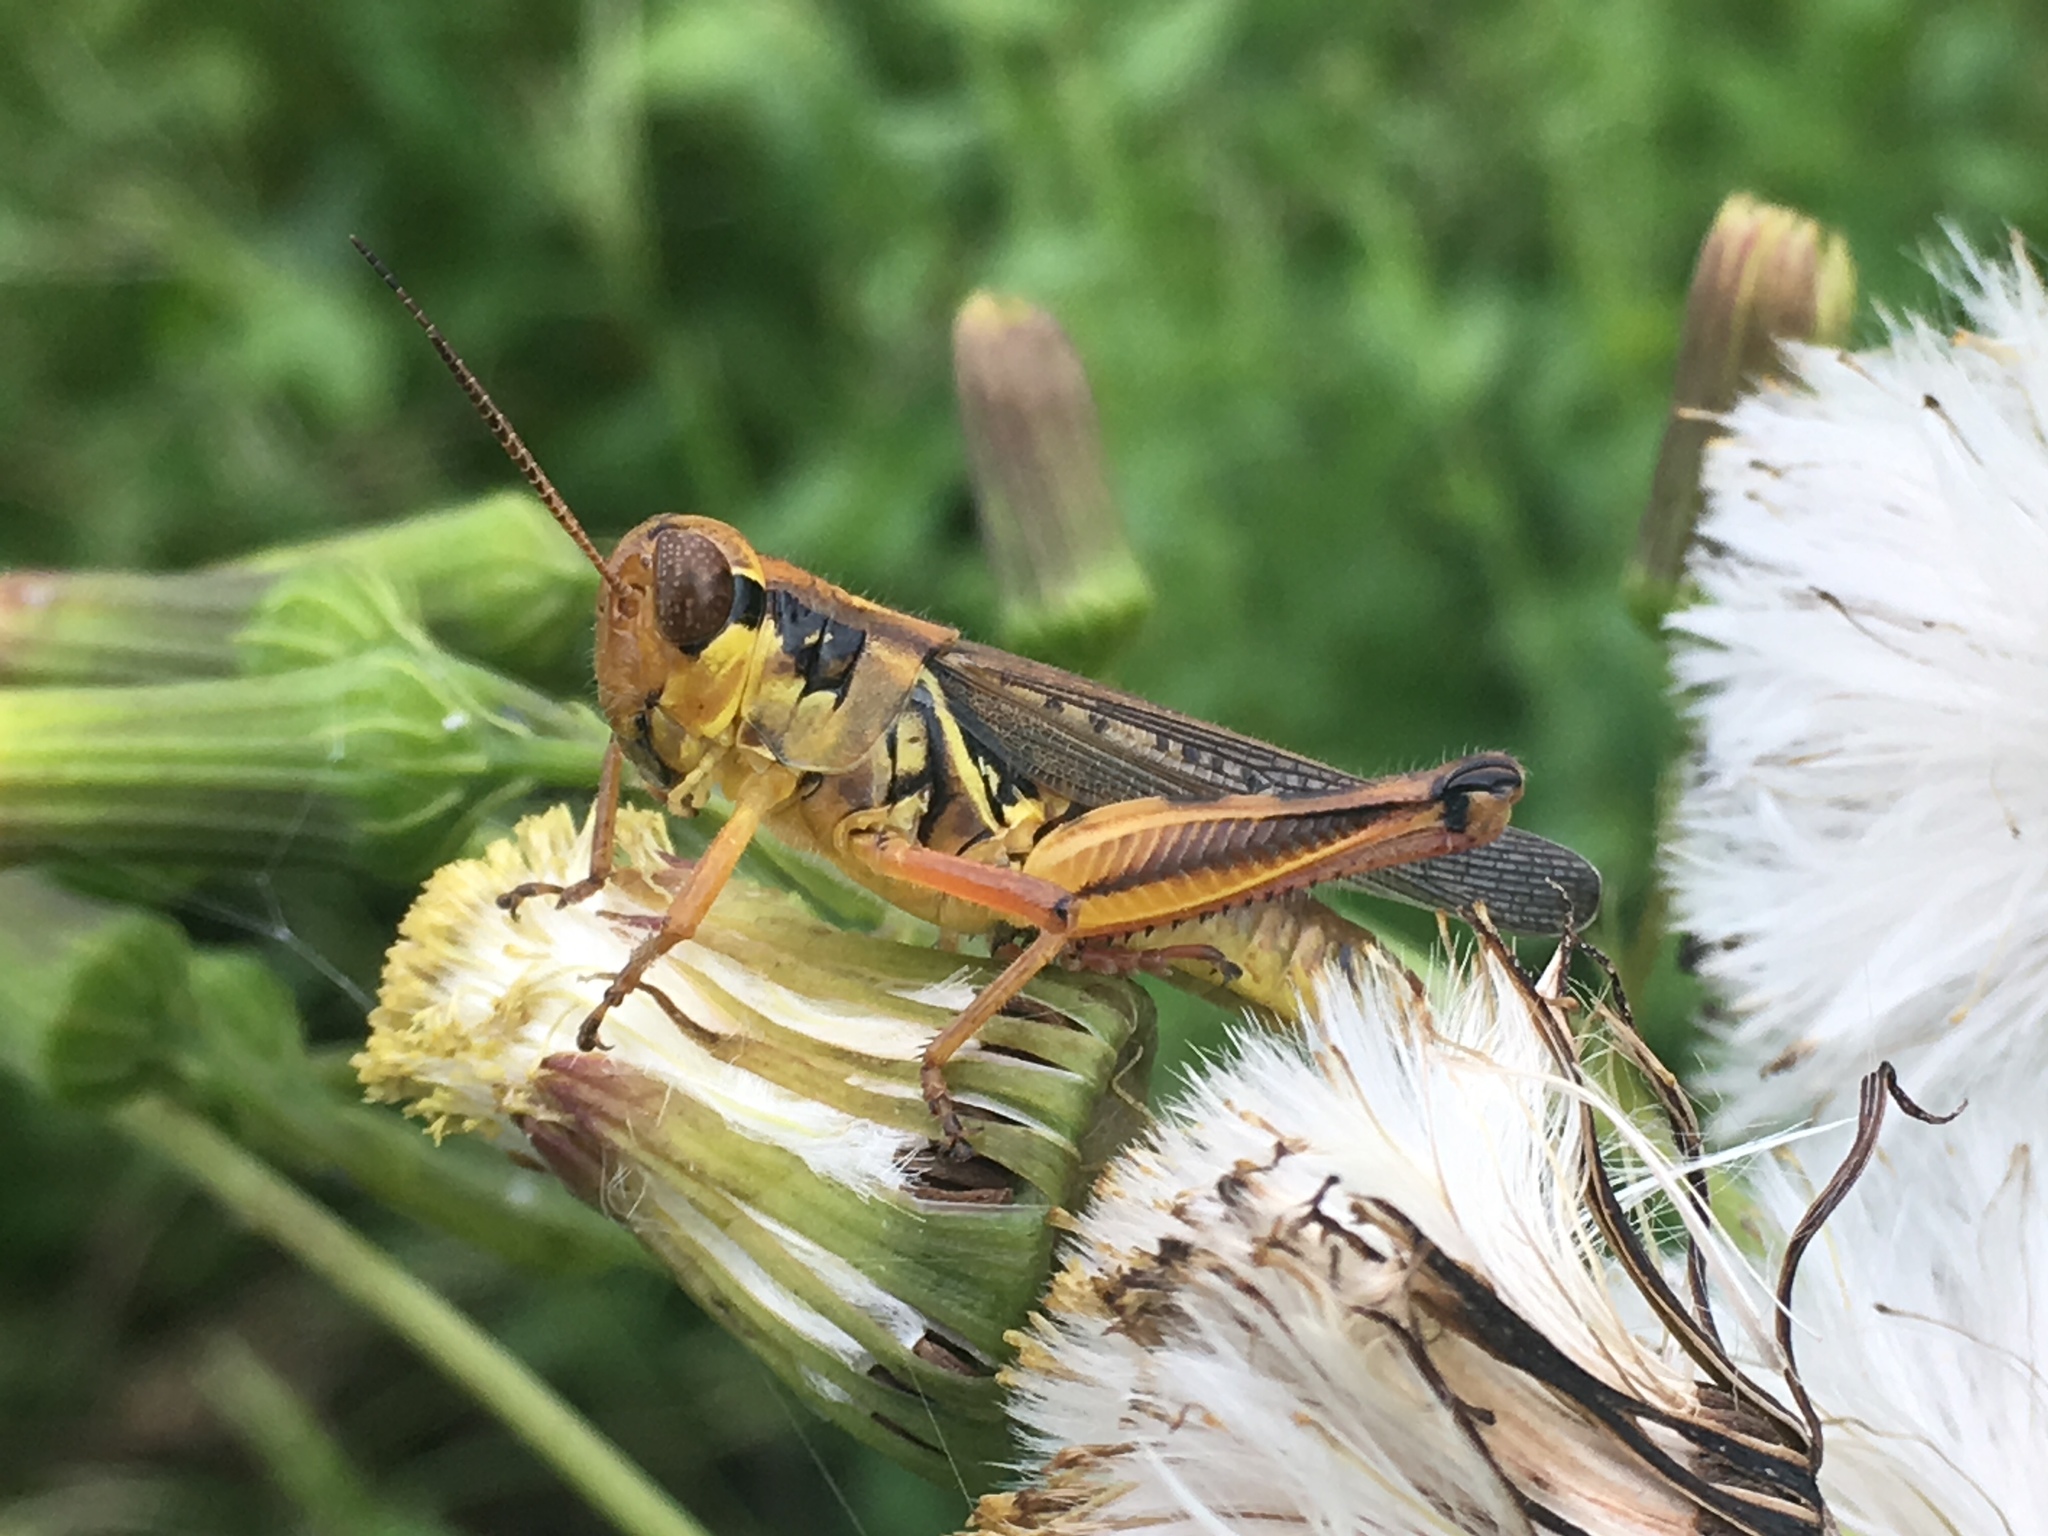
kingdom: Animalia
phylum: Arthropoda
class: Insecta
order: Orthoptera
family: Acrididae
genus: Melanoplus
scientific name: Melanoplus femurrubrum
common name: Red-legged grasshopper
